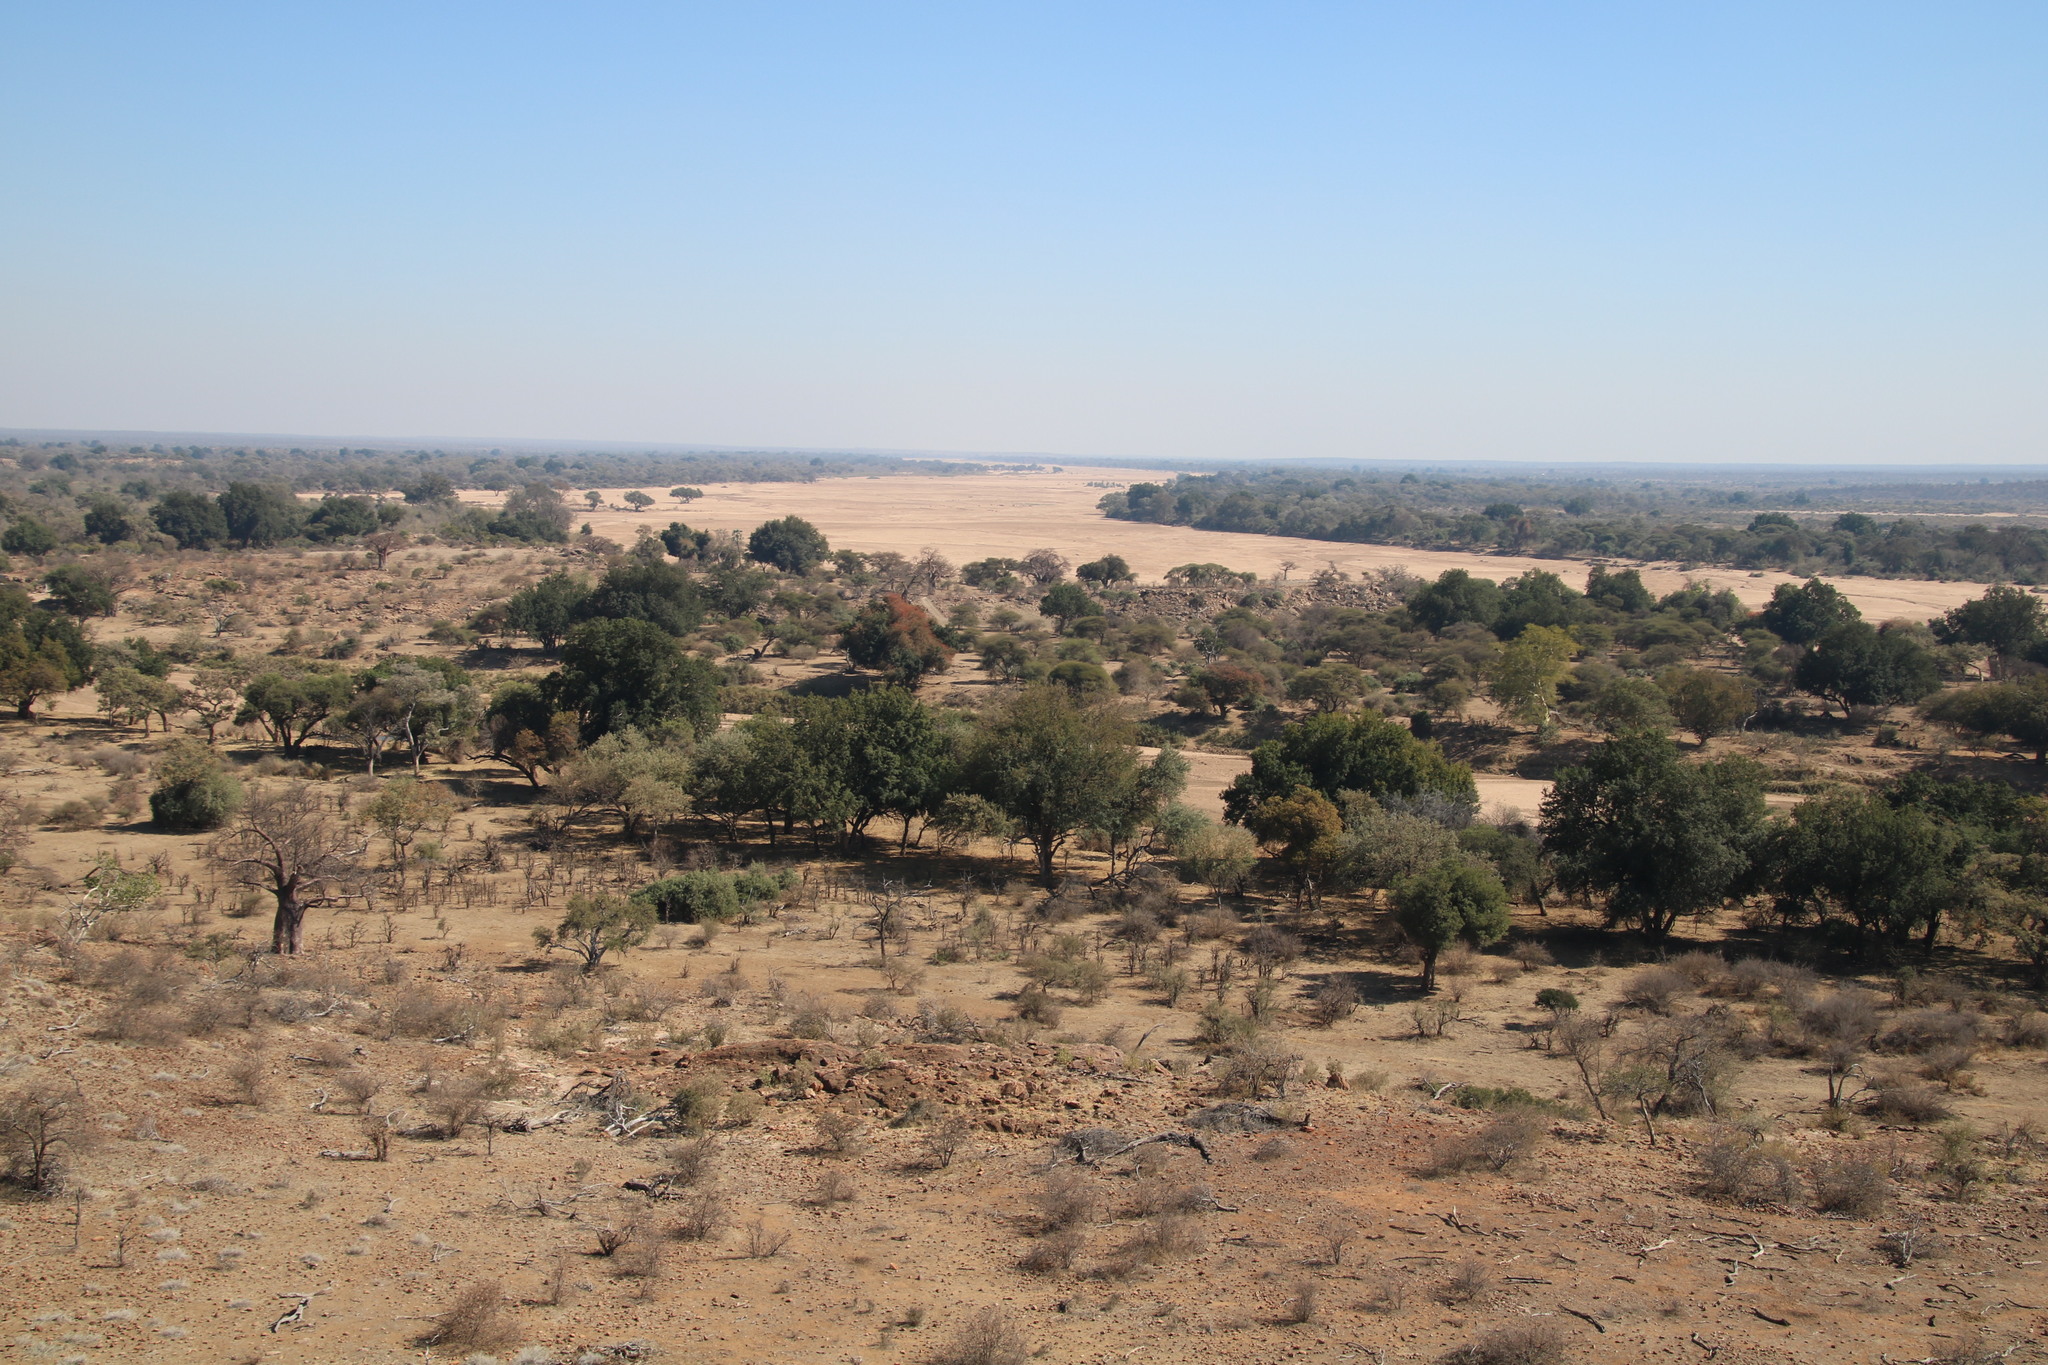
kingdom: Plantae
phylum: Tracheophyta
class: Magnoliopsida
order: Myrtales
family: Combretaceae
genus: Combretum
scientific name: Combretum microphyllum
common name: Burningbush
